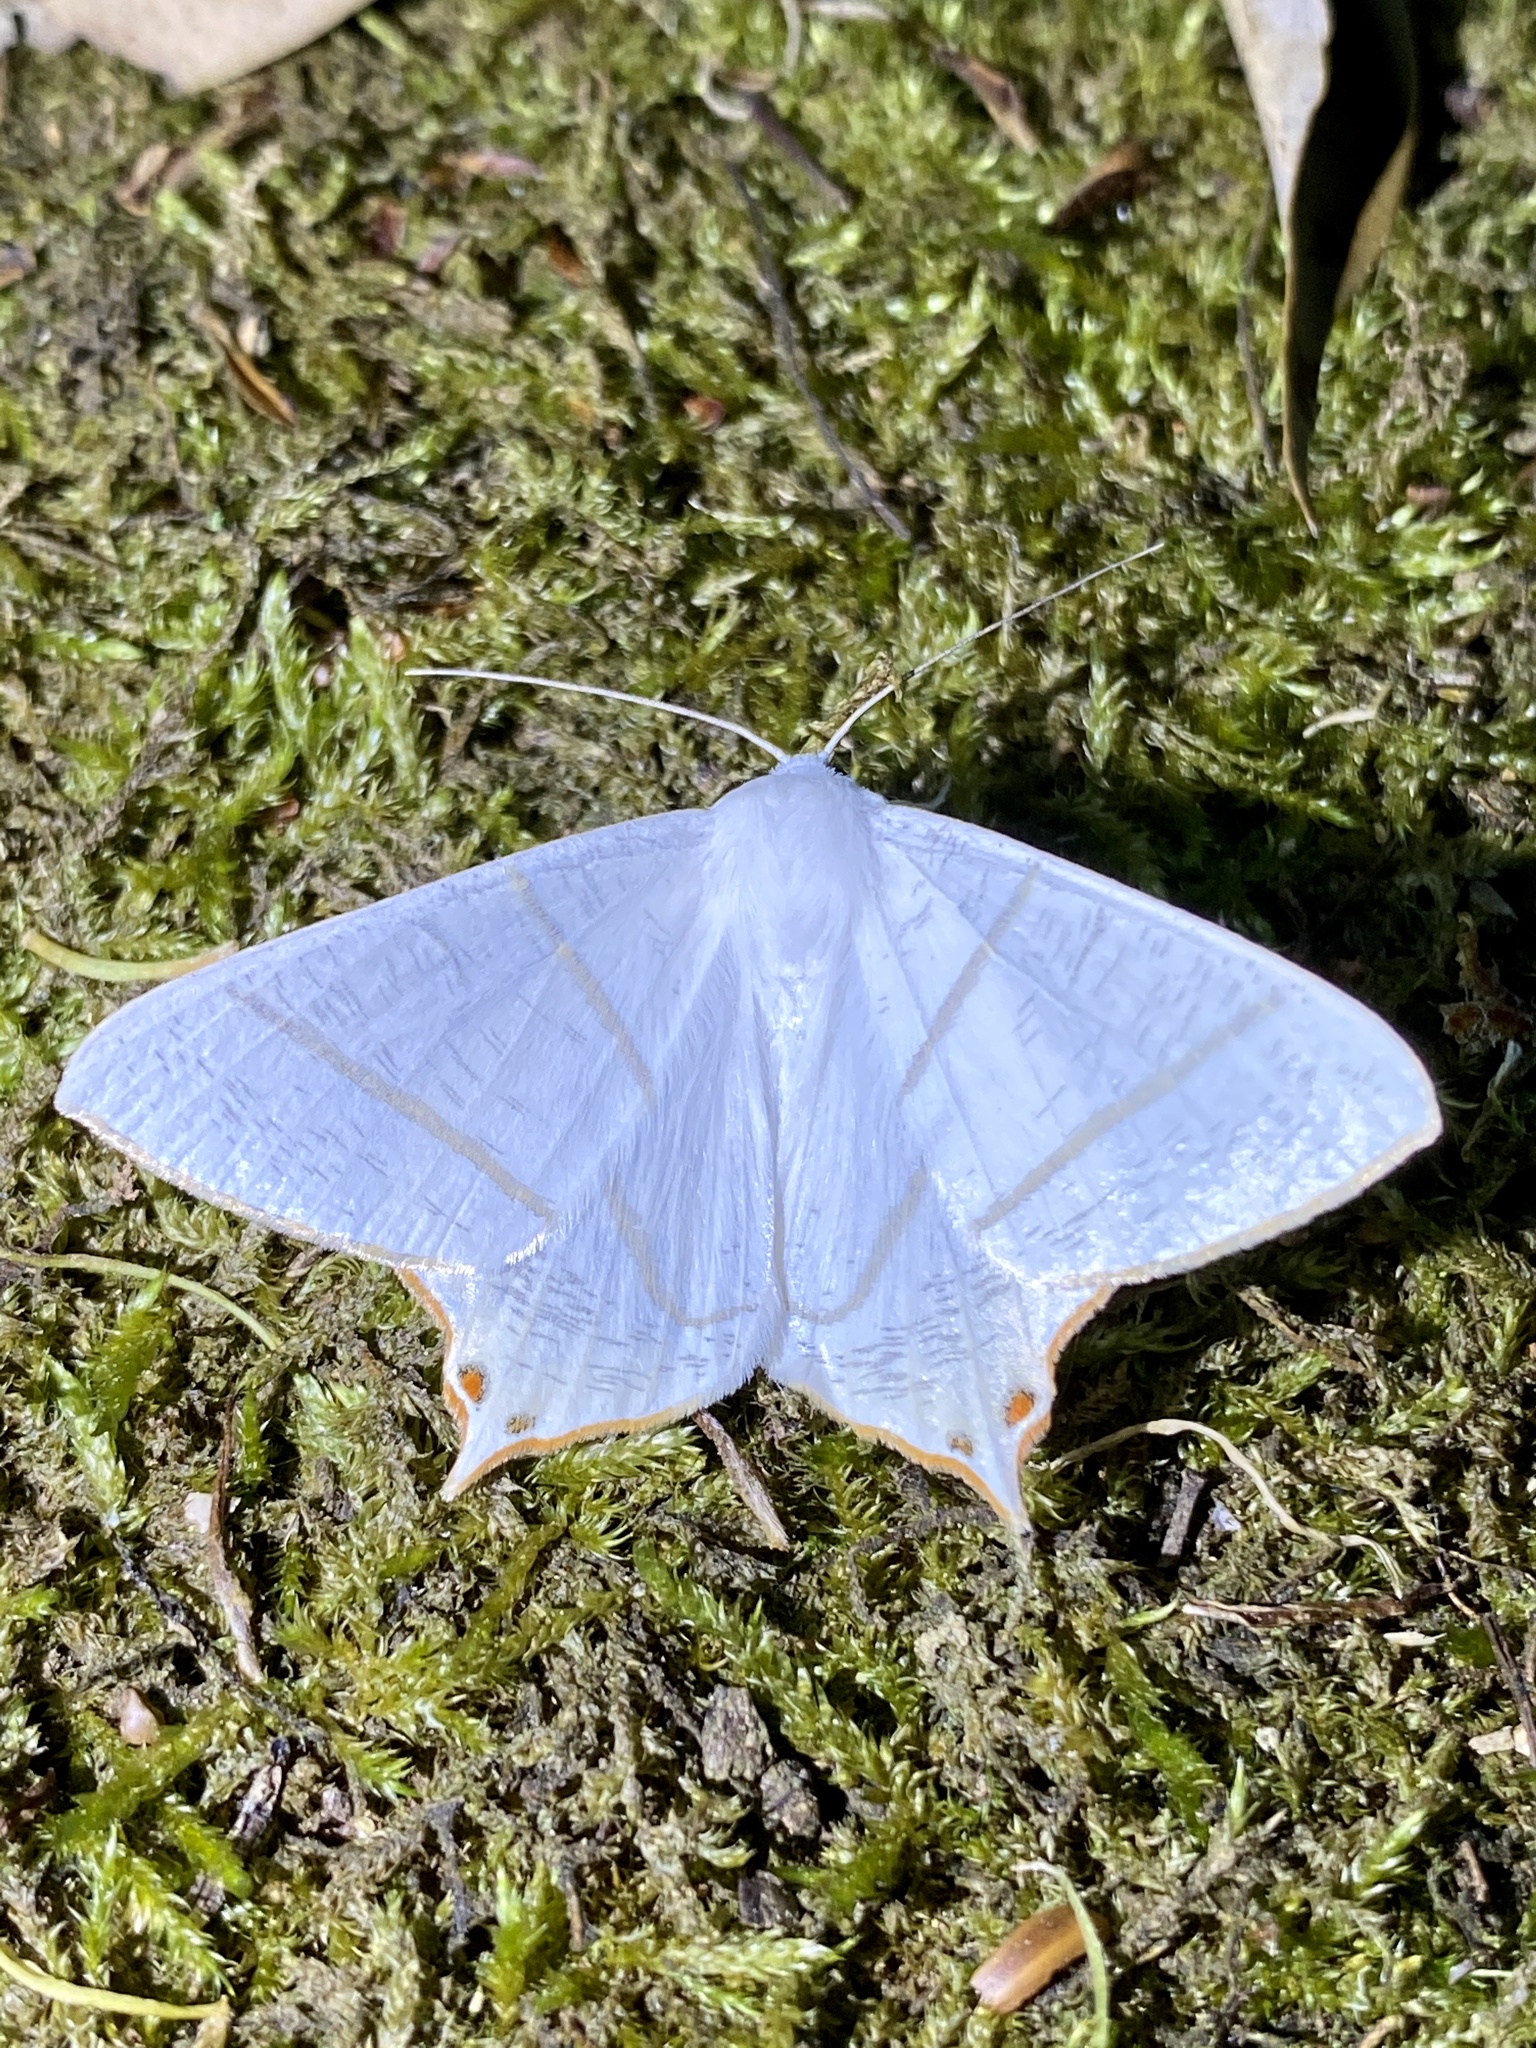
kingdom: Animalia
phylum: Arthropoda
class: Insecta
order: Lepidoptera
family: Geometridae
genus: Ourapteryx
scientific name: Ourapteryx nivea
